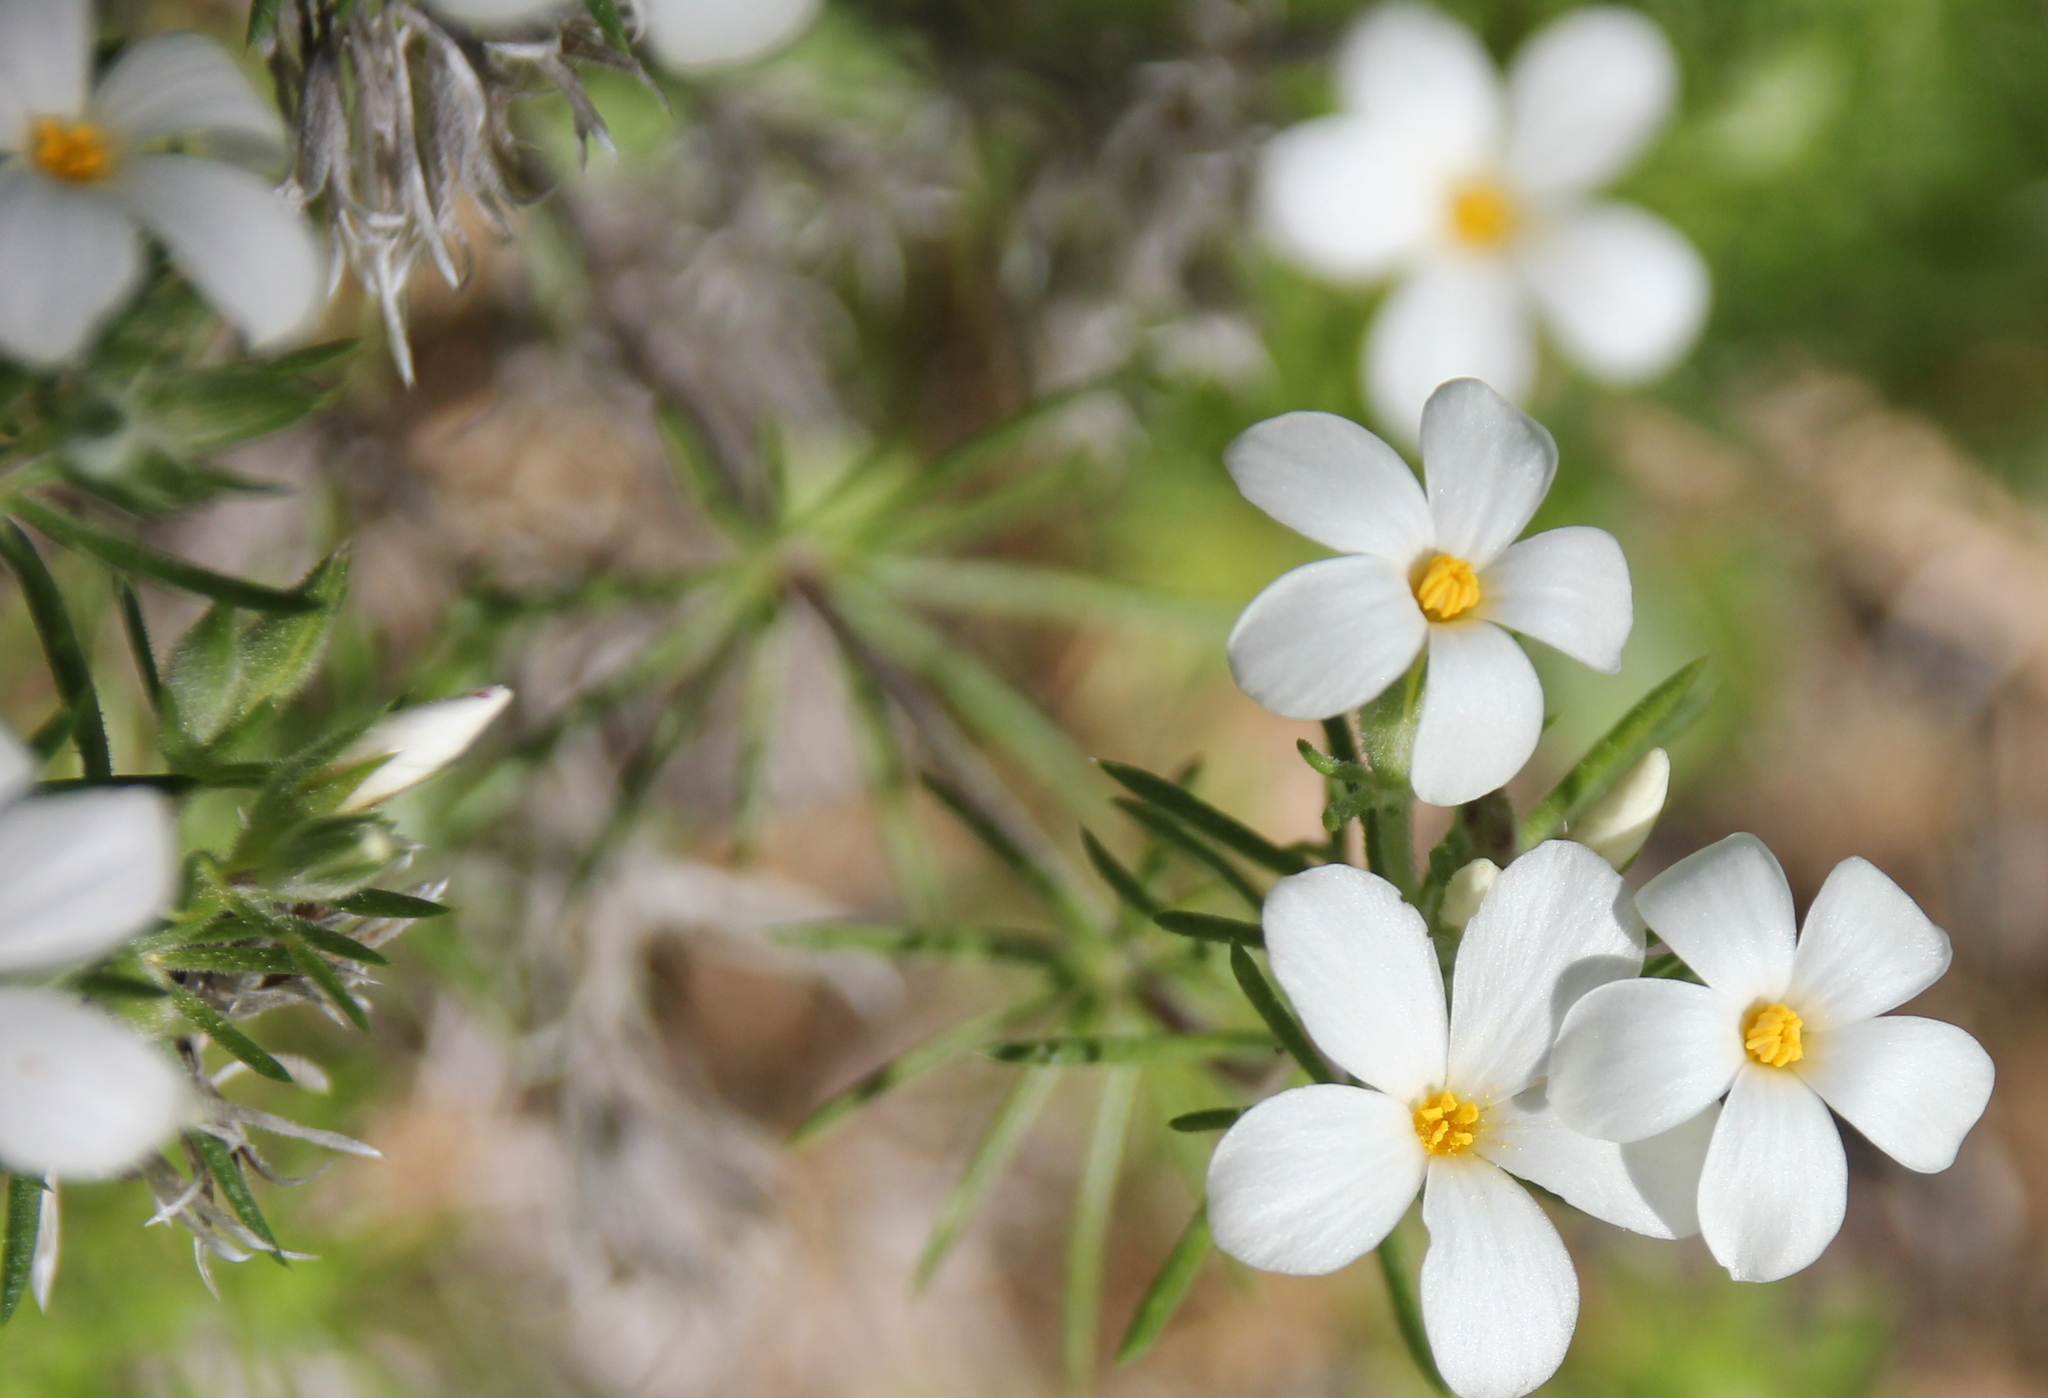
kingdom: Plantae
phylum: Tracheophyta
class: Magnoliopsida
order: Ericales
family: Polemoniaceae
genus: Leptosiphon
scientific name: Leptosiphon floribundum
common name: Many-flower linanthus
